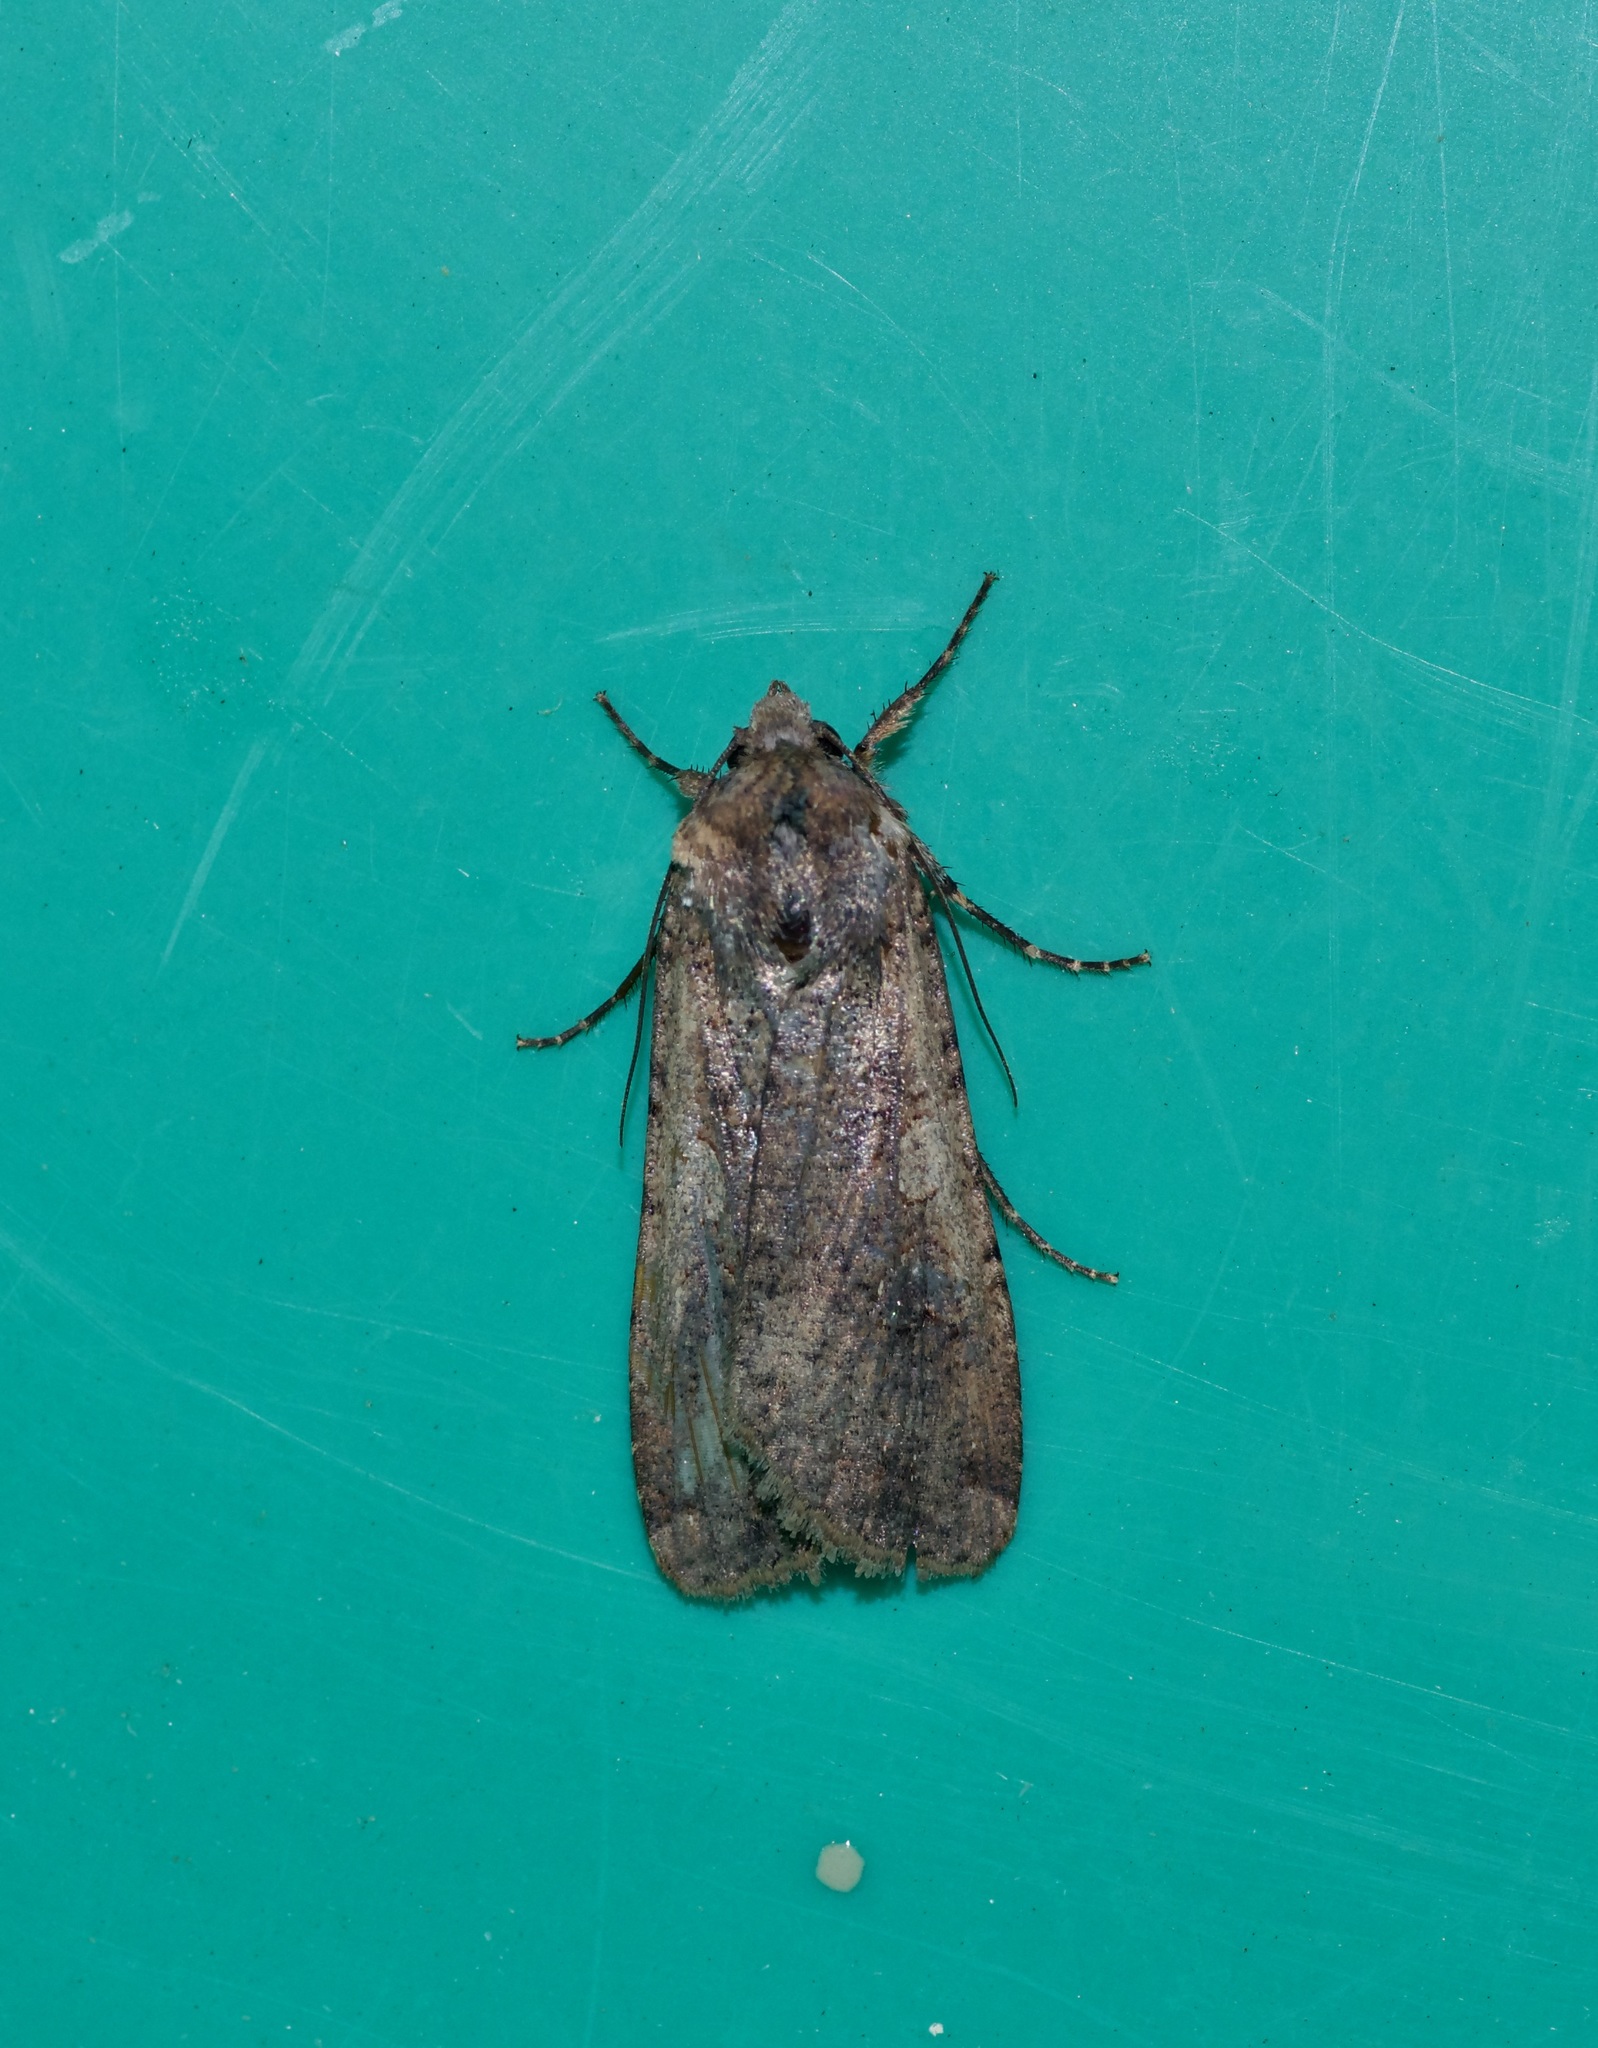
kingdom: Animalia
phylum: Arthropoda
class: Insecta
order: Lepidoptera
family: Noctuidae
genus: Peridroma
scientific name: Peridroma saucia
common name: Pearly underwing
